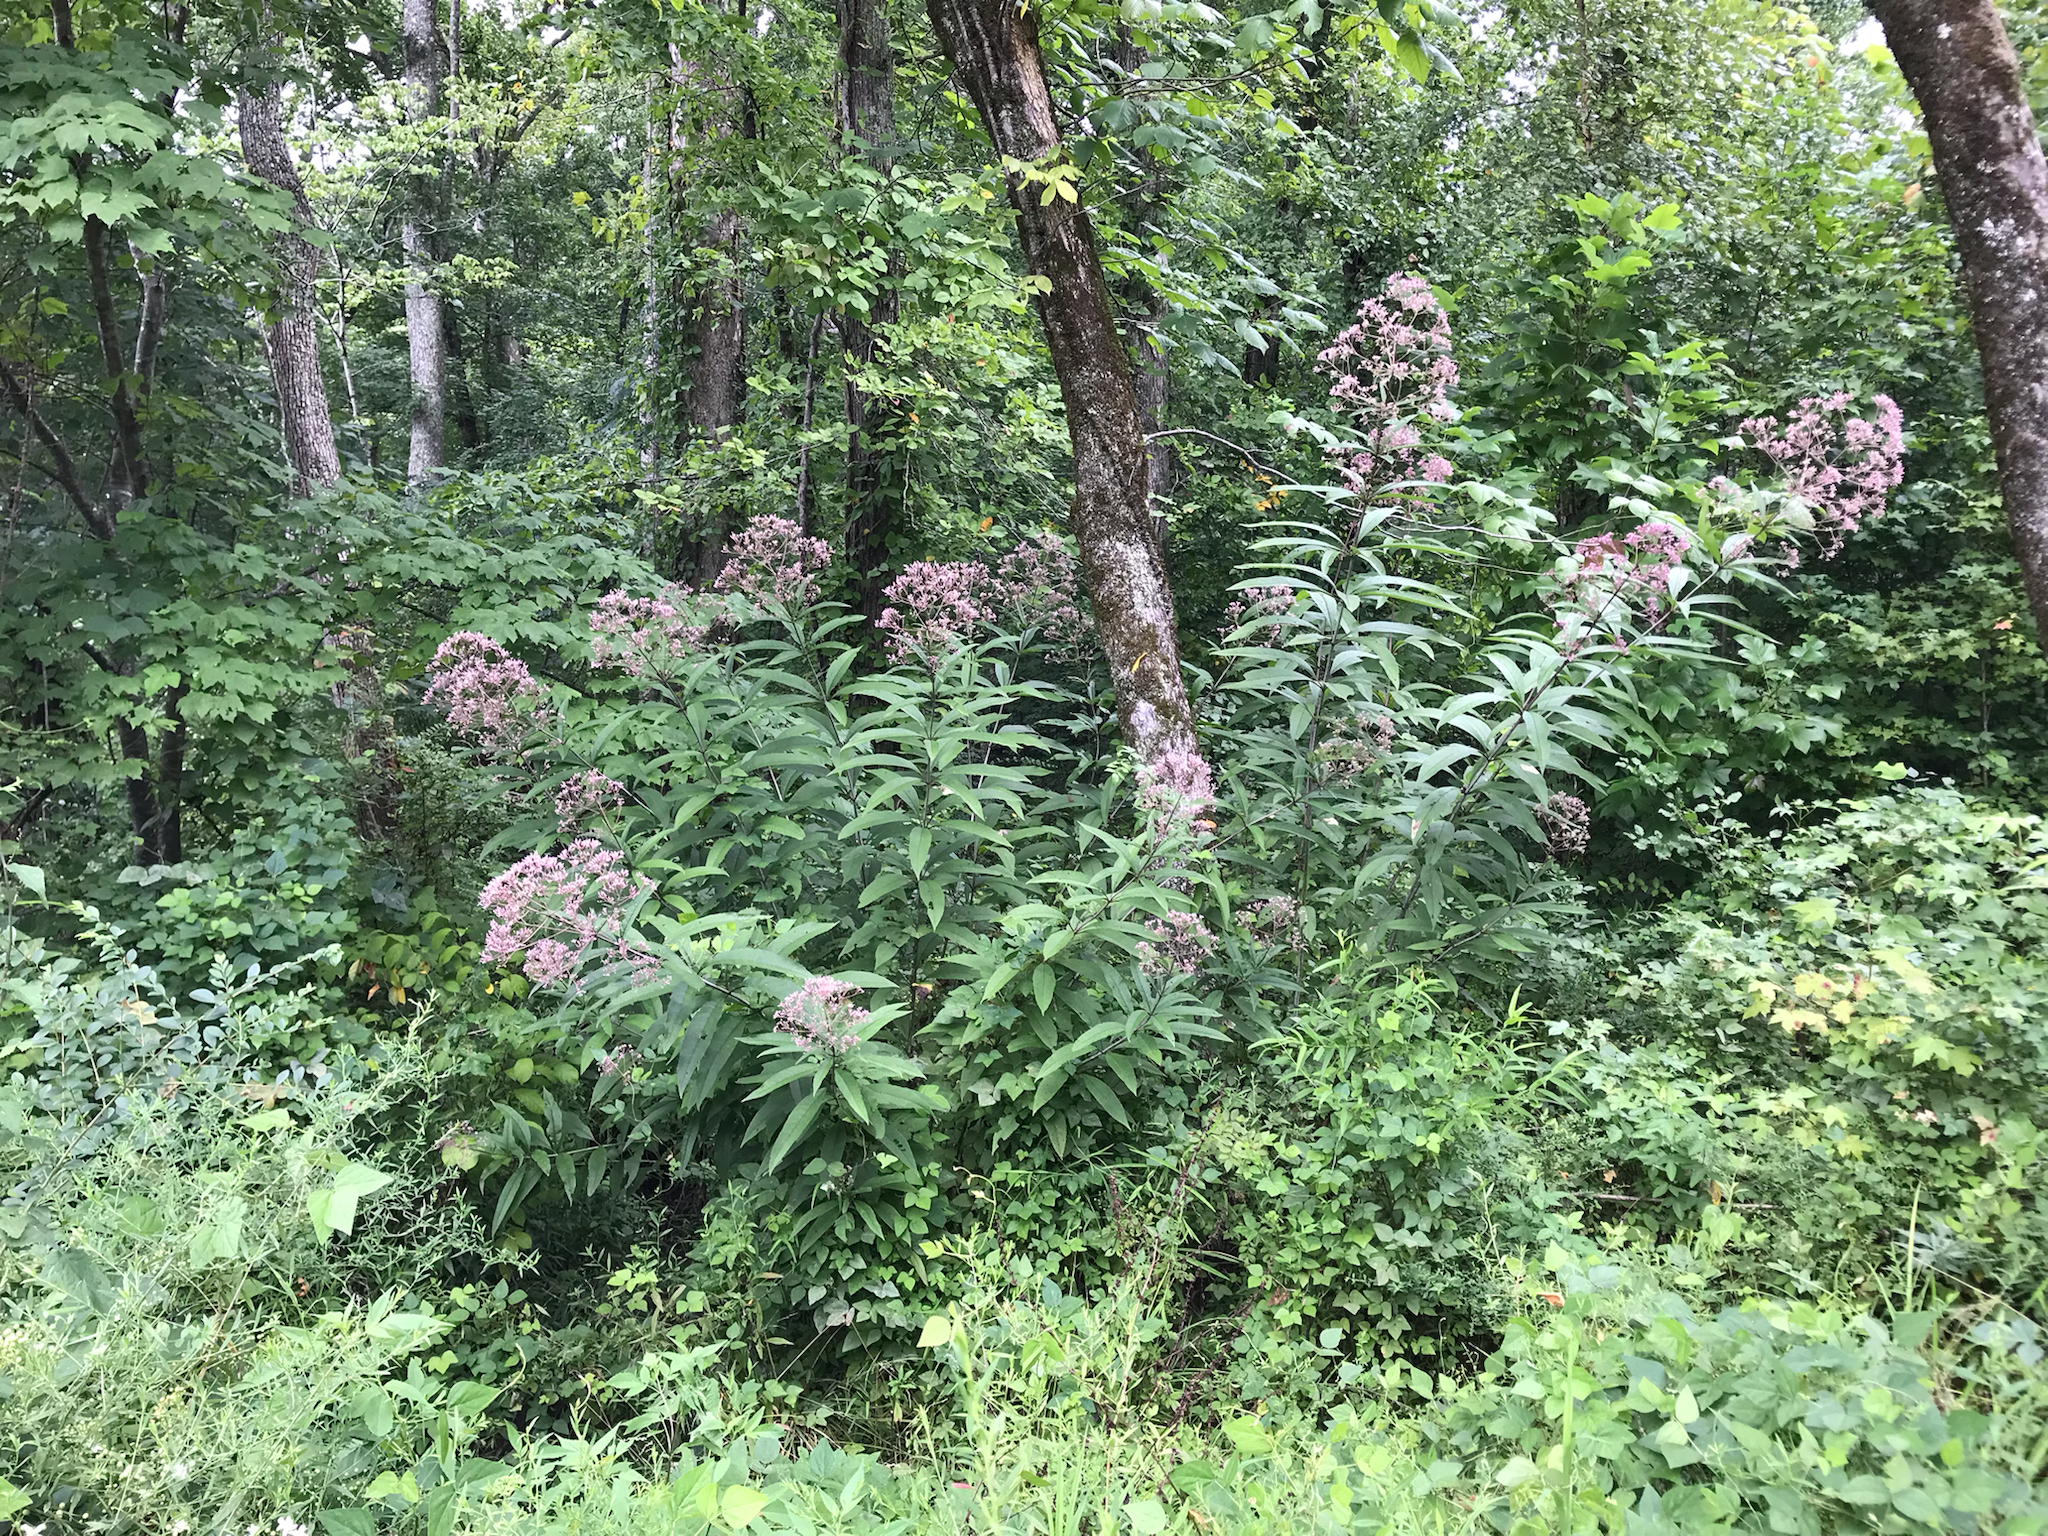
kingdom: Plantae
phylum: Tracheophyta
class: Magnoliopsida
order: Asterales
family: Asteraceae
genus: Eutrochium
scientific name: Eutrochium fistulosum
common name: Trumpetweed
